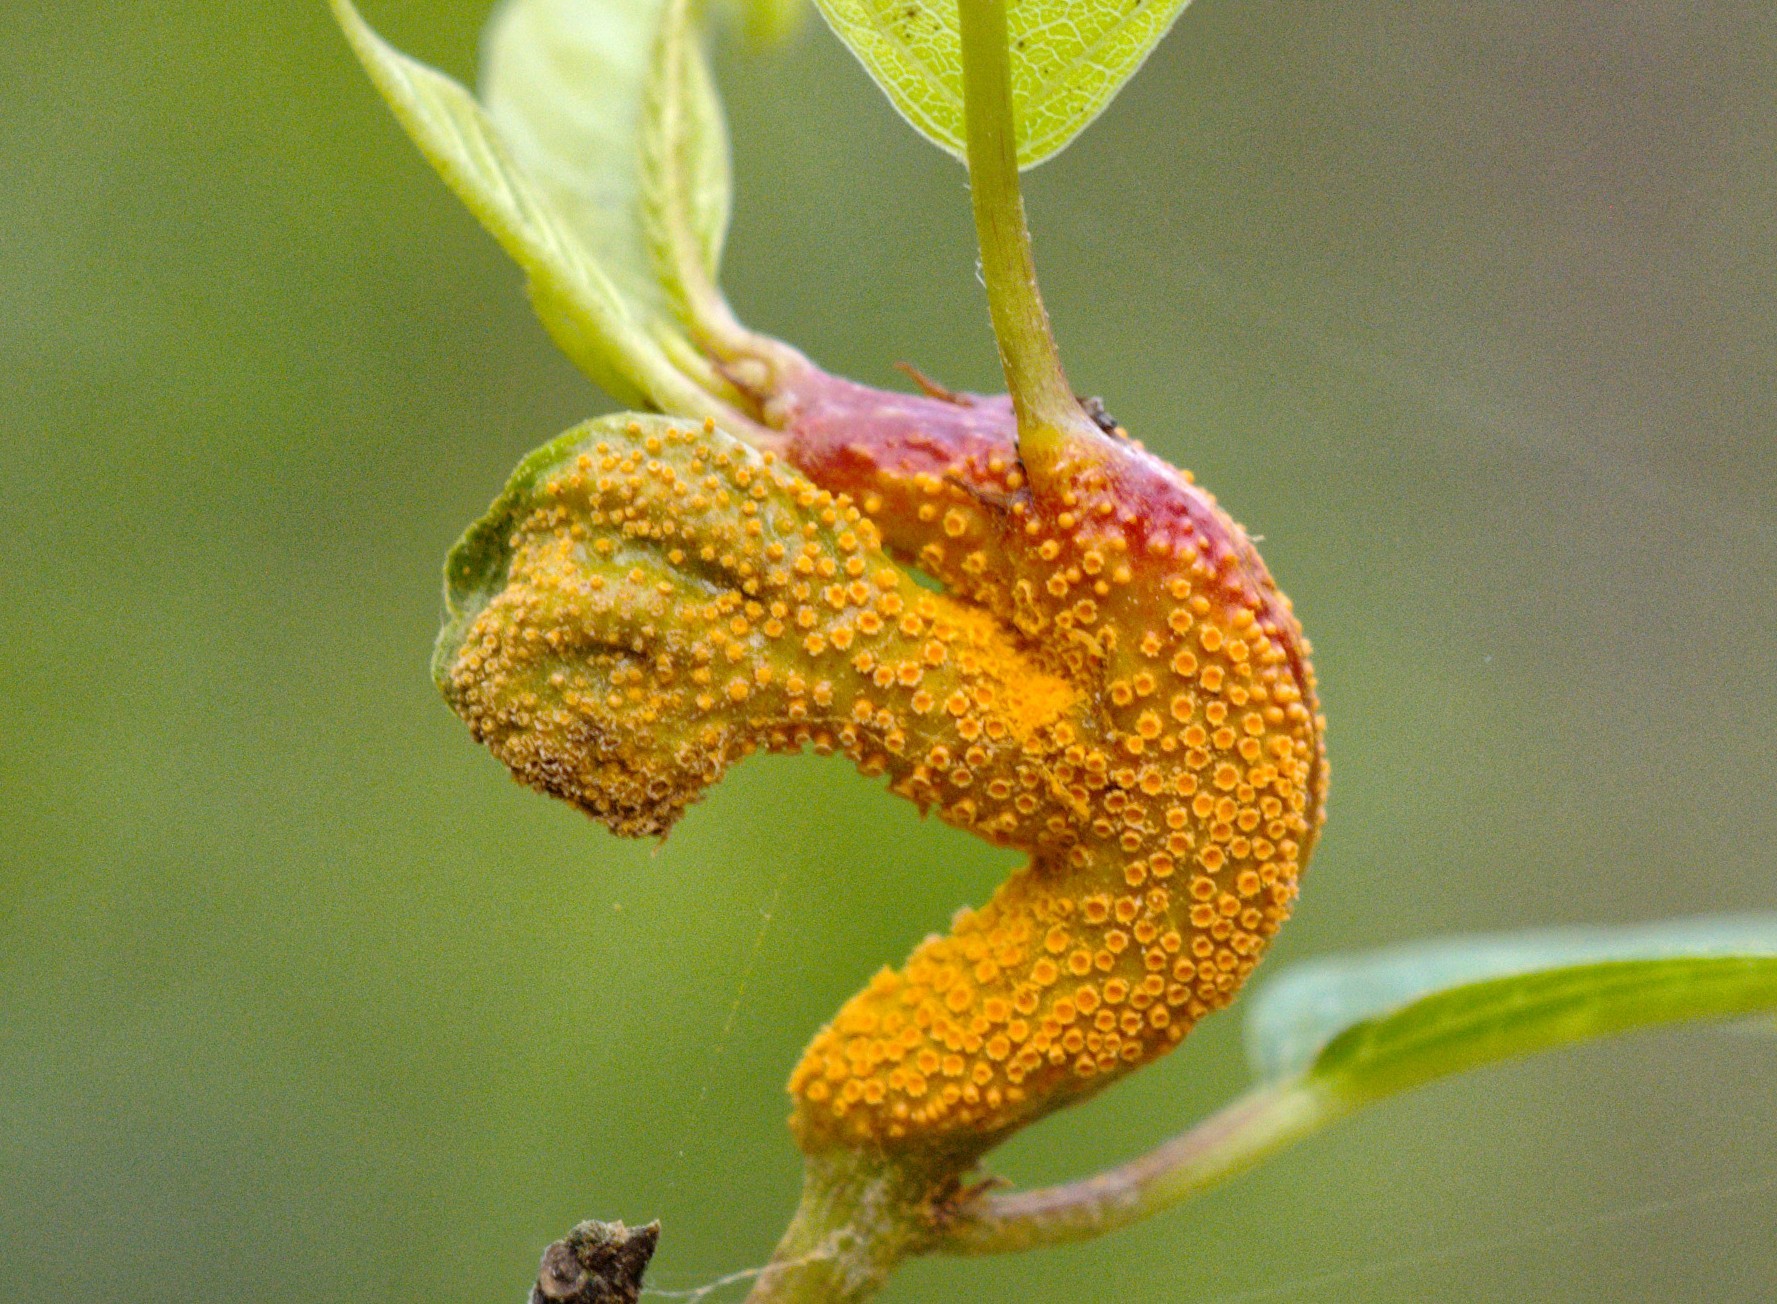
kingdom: Fungi
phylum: Basidiomycota
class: Pucciniomycetes
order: Pucciniales
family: Pucciniaceae
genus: Puccinia
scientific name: Puccinia coronata
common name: Crown rust
